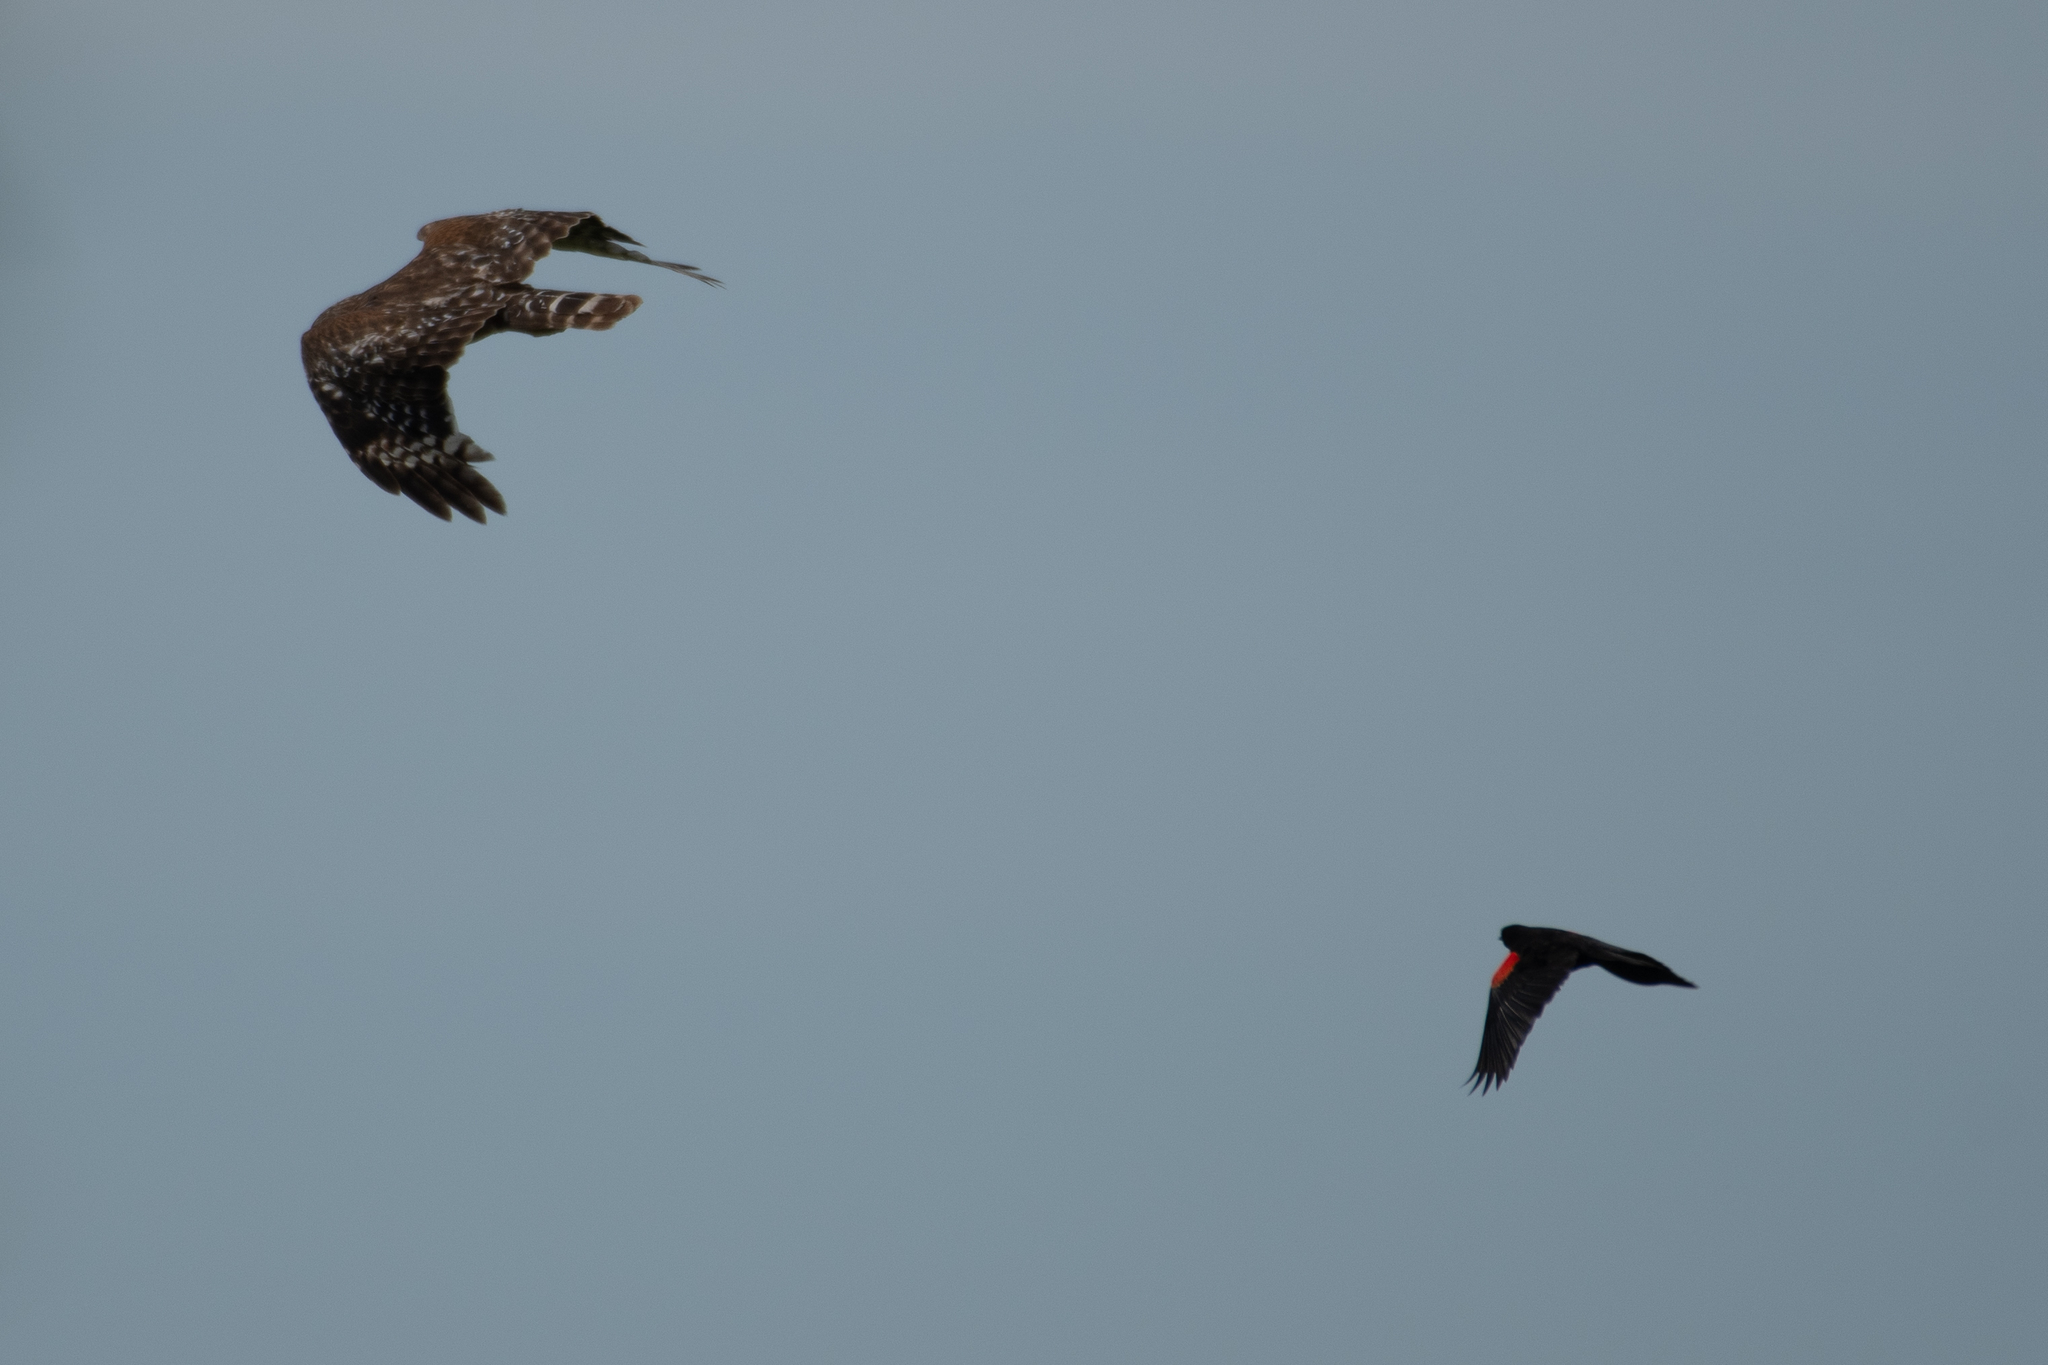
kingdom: Animalia
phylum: Chordata
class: Aves
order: Accipitriformes
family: Accipitridae
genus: Buteo
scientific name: Buteo lineatus
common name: Red-shouldered hawk
